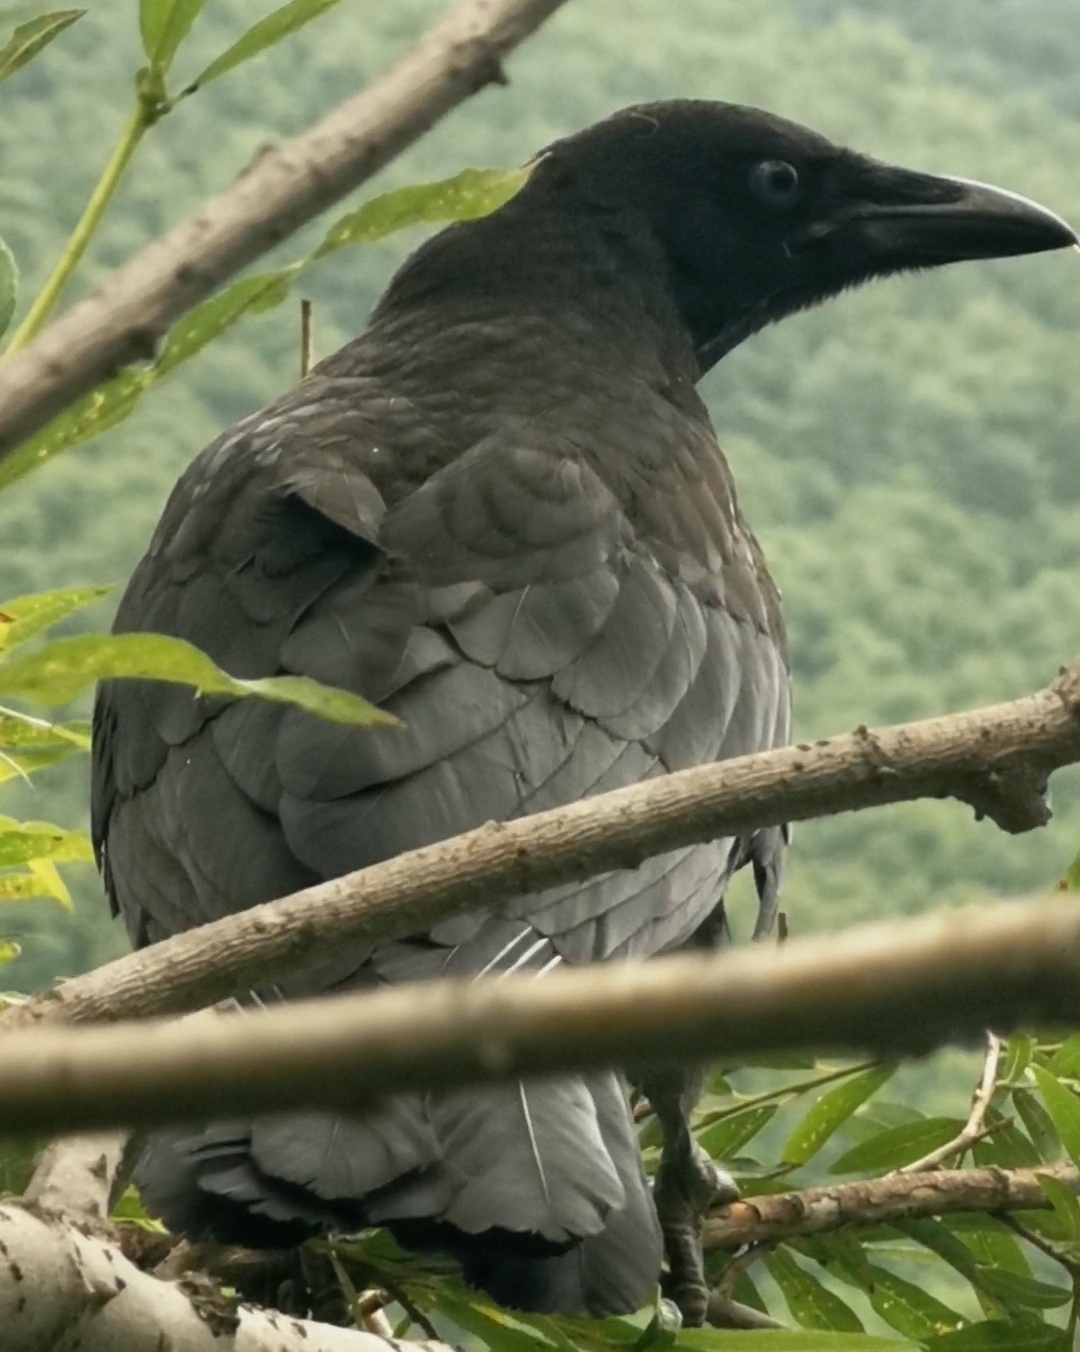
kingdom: Animalia
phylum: Chordata
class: Aves
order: Passeriformes
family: Corvidae
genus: Corvus
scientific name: Corvus corone
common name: Carrion crow
